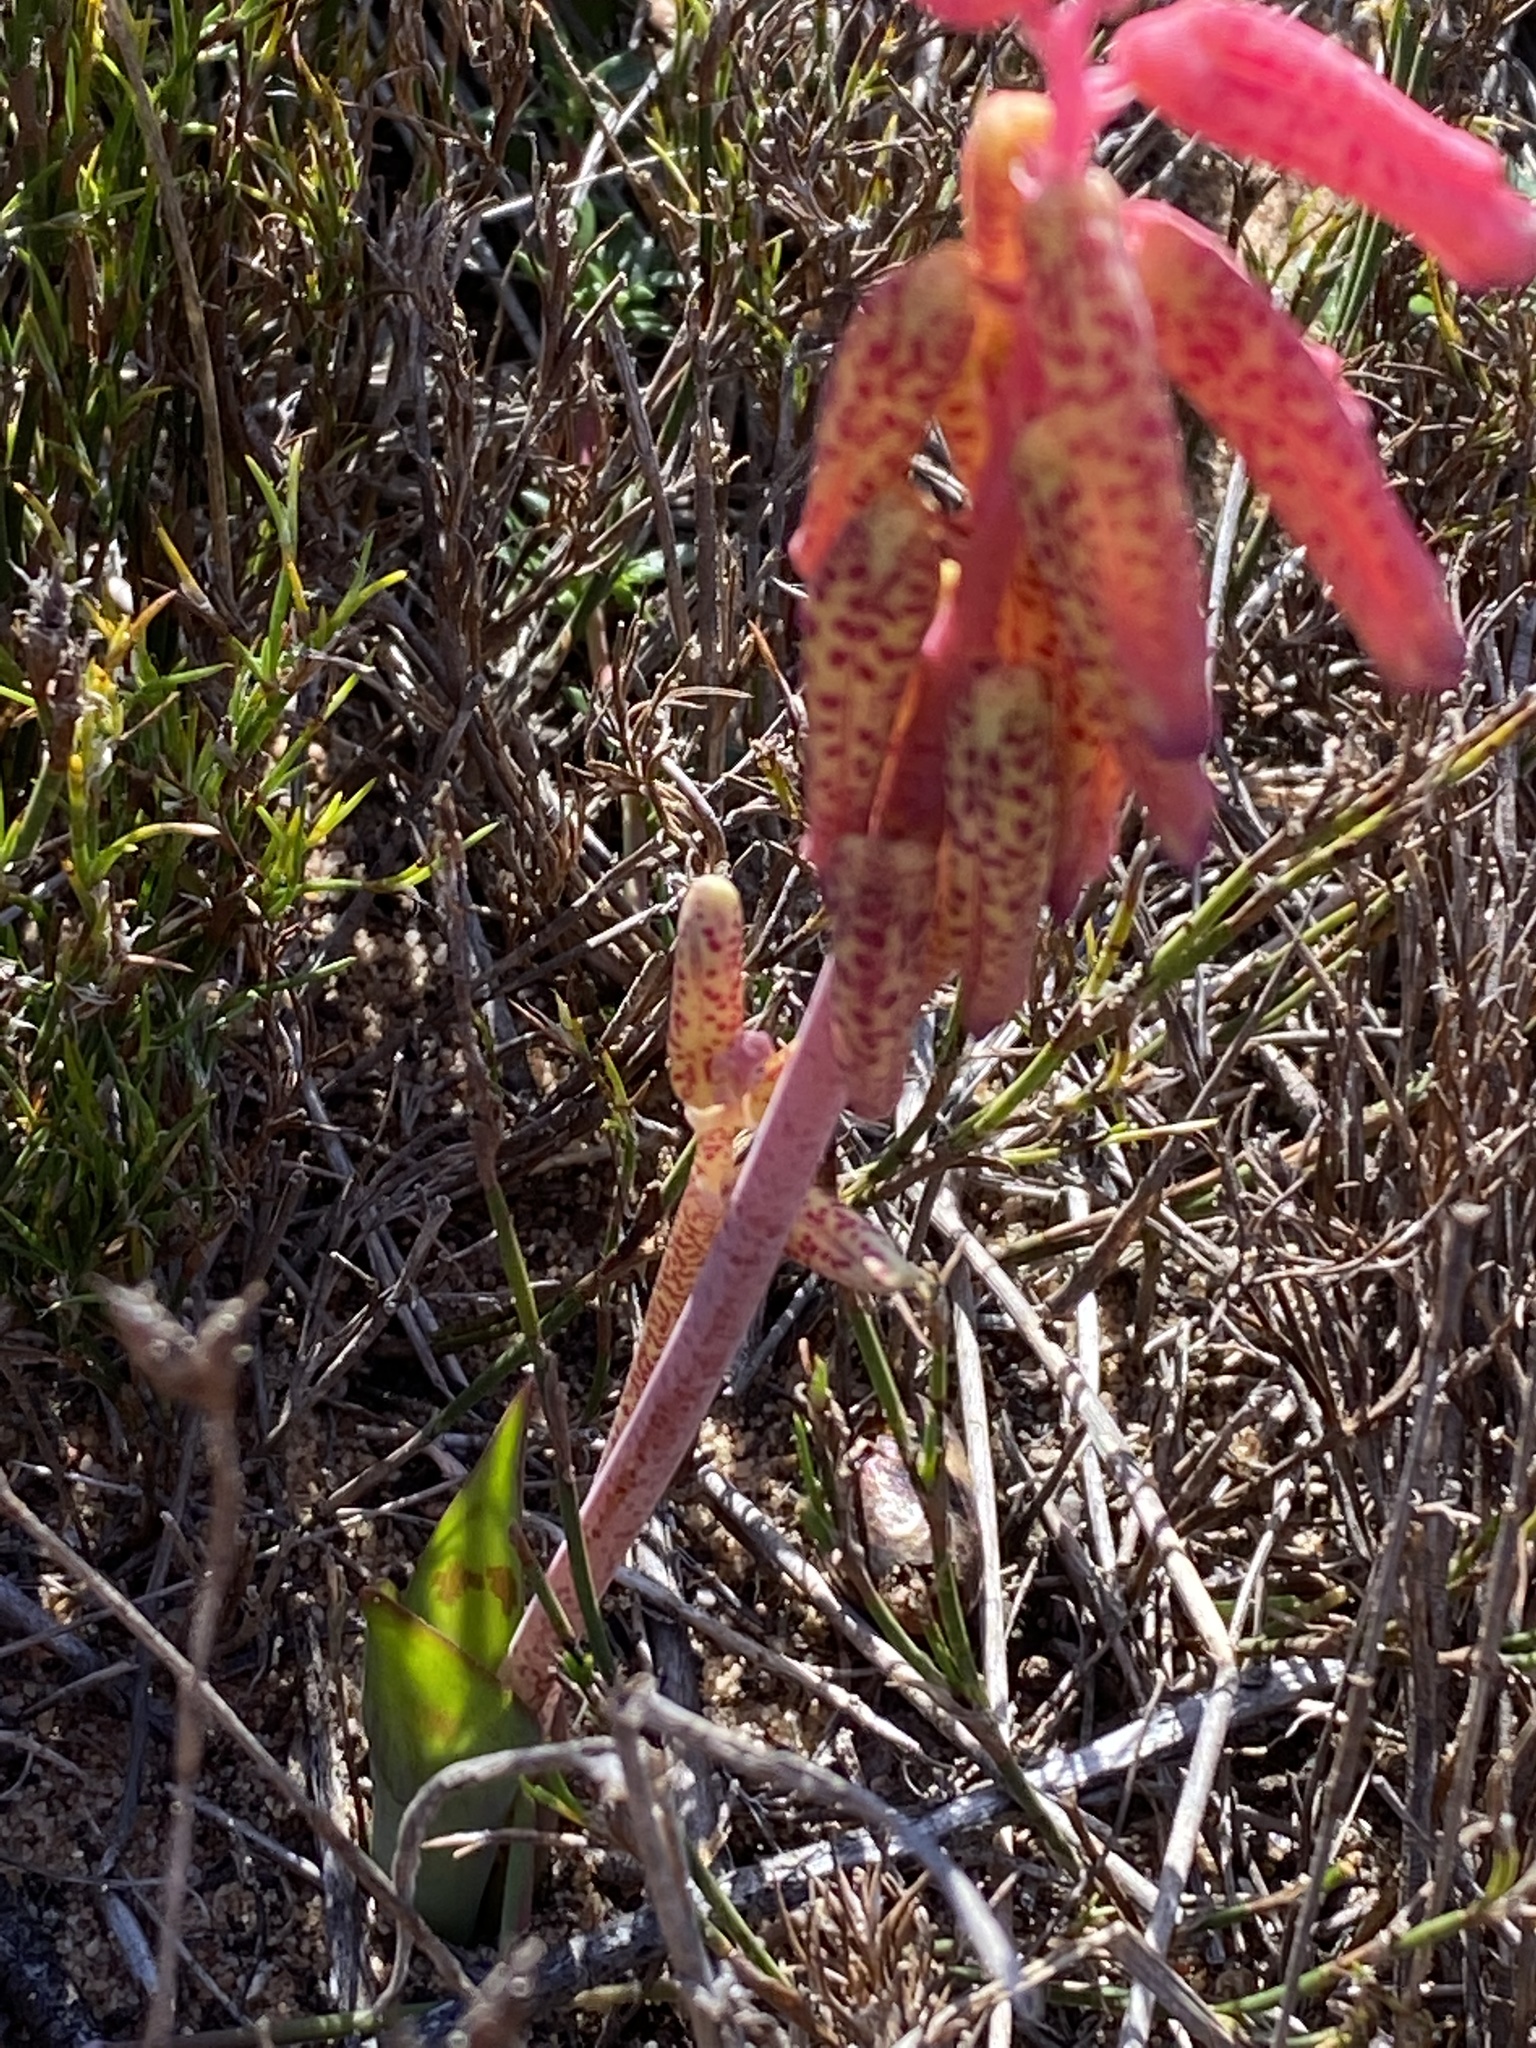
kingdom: Plantae
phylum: Tracheophyta
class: Liliopsida
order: Asparagales
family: Asparagaceae
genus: Lachenalia
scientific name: Lachenalia punctata
